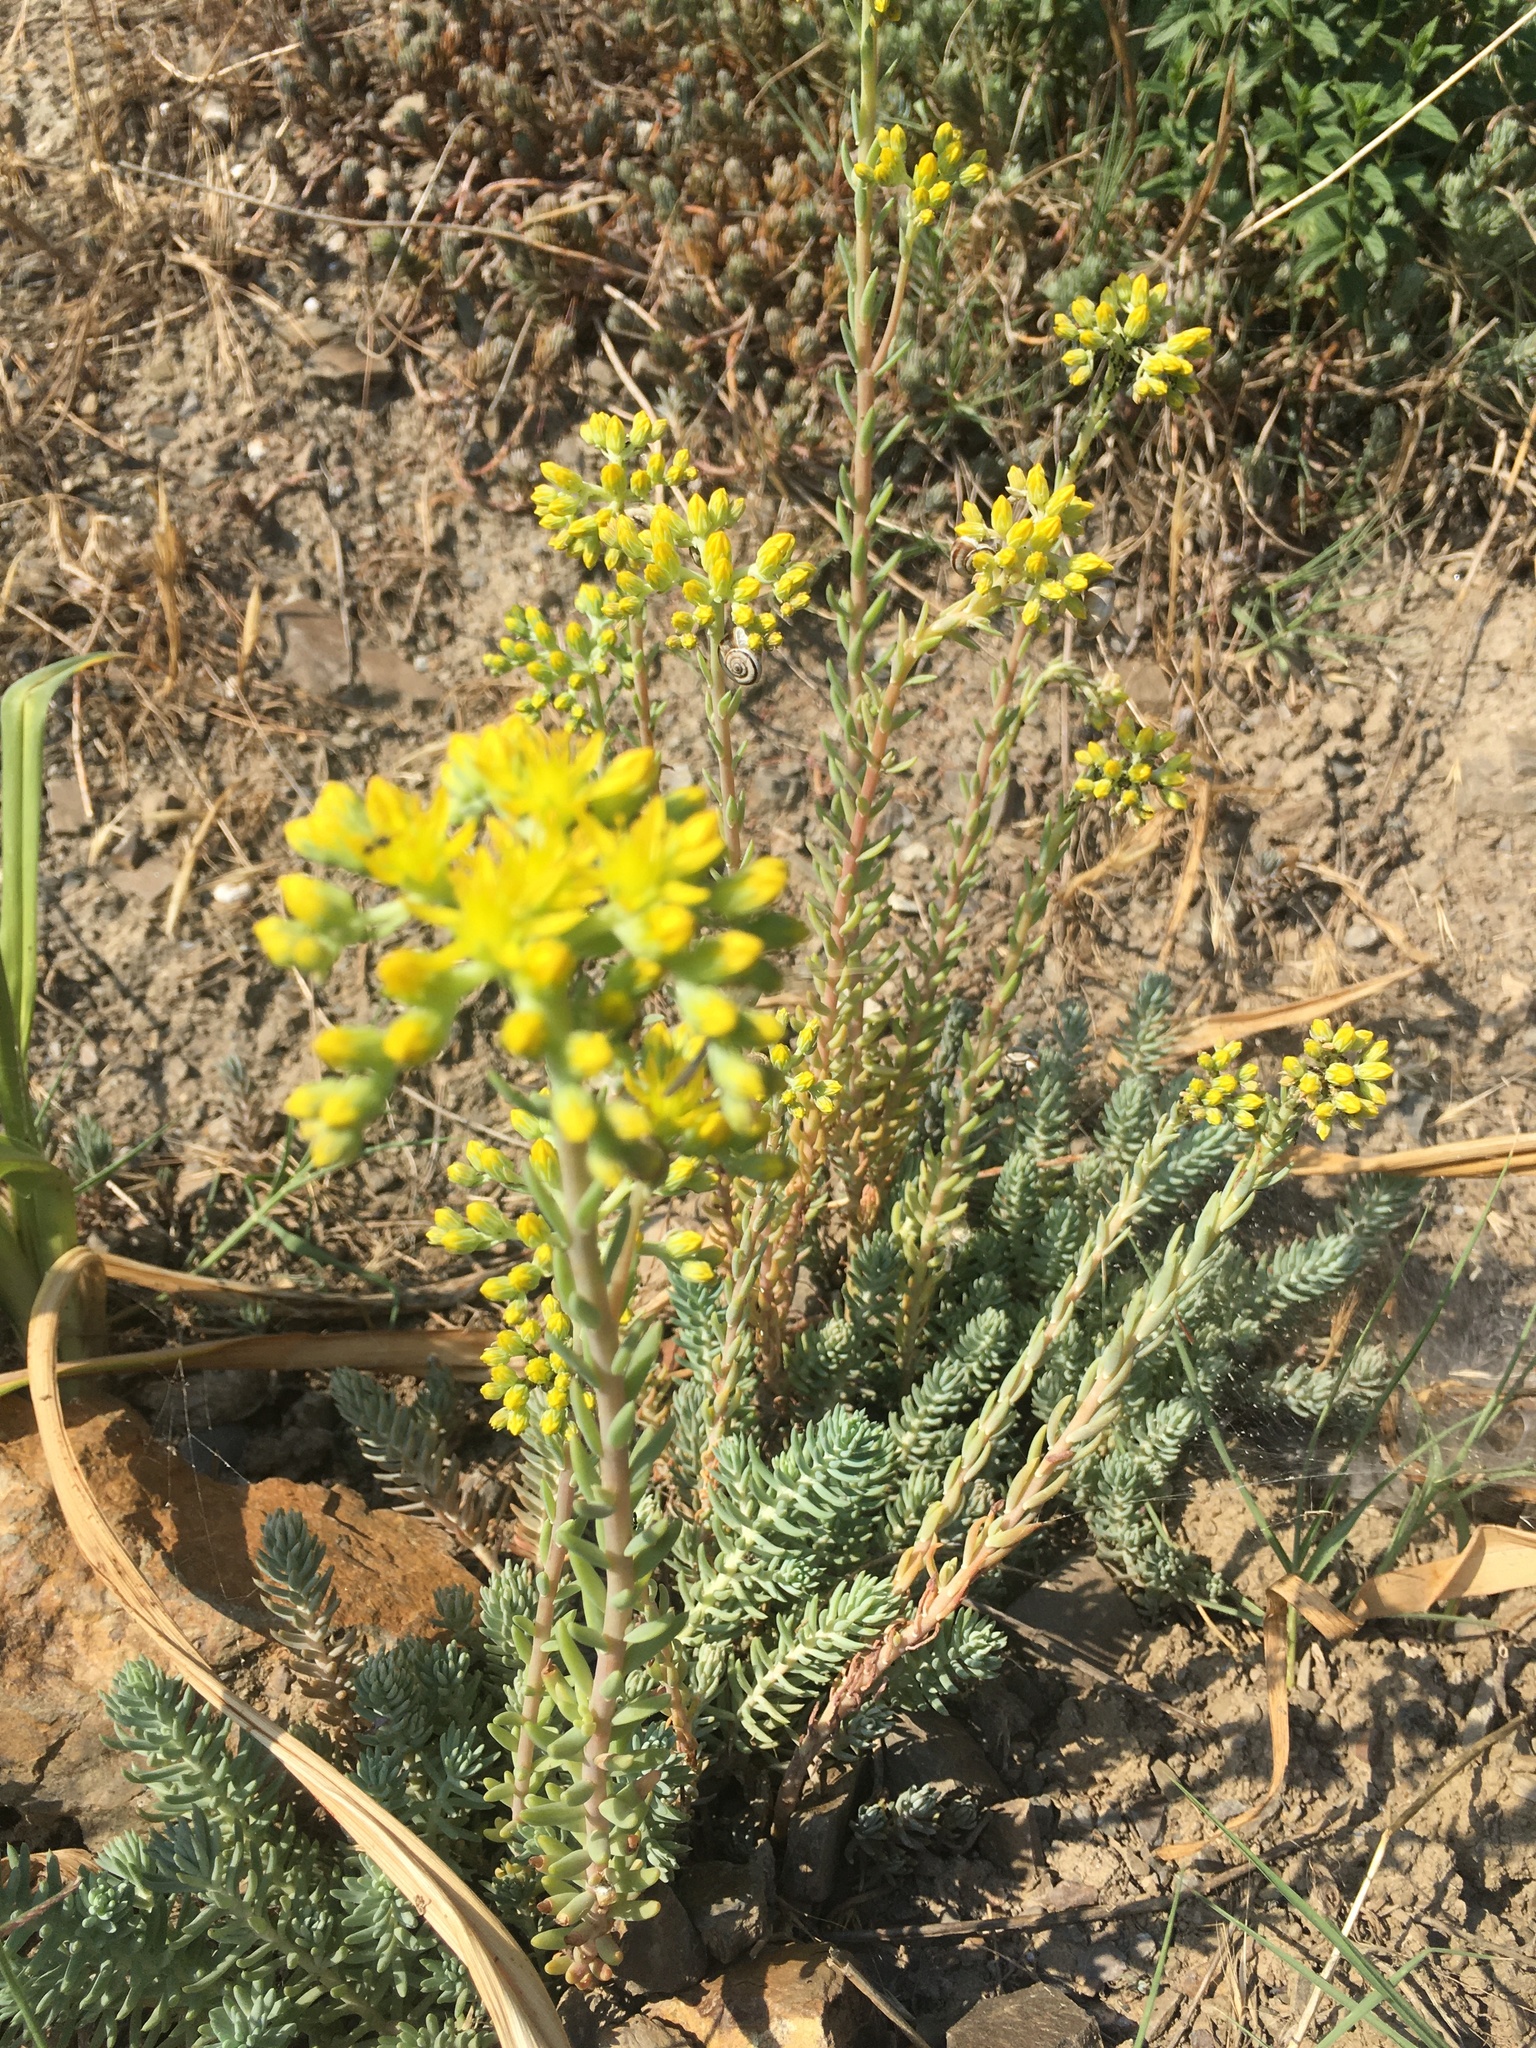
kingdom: Plantae
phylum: Tracheophyta
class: Magnoliopsida
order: Saxifragales
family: Crassulaceae
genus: Petrosedum
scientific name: Petrosedum rupestre
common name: Jenny's stonecrop
